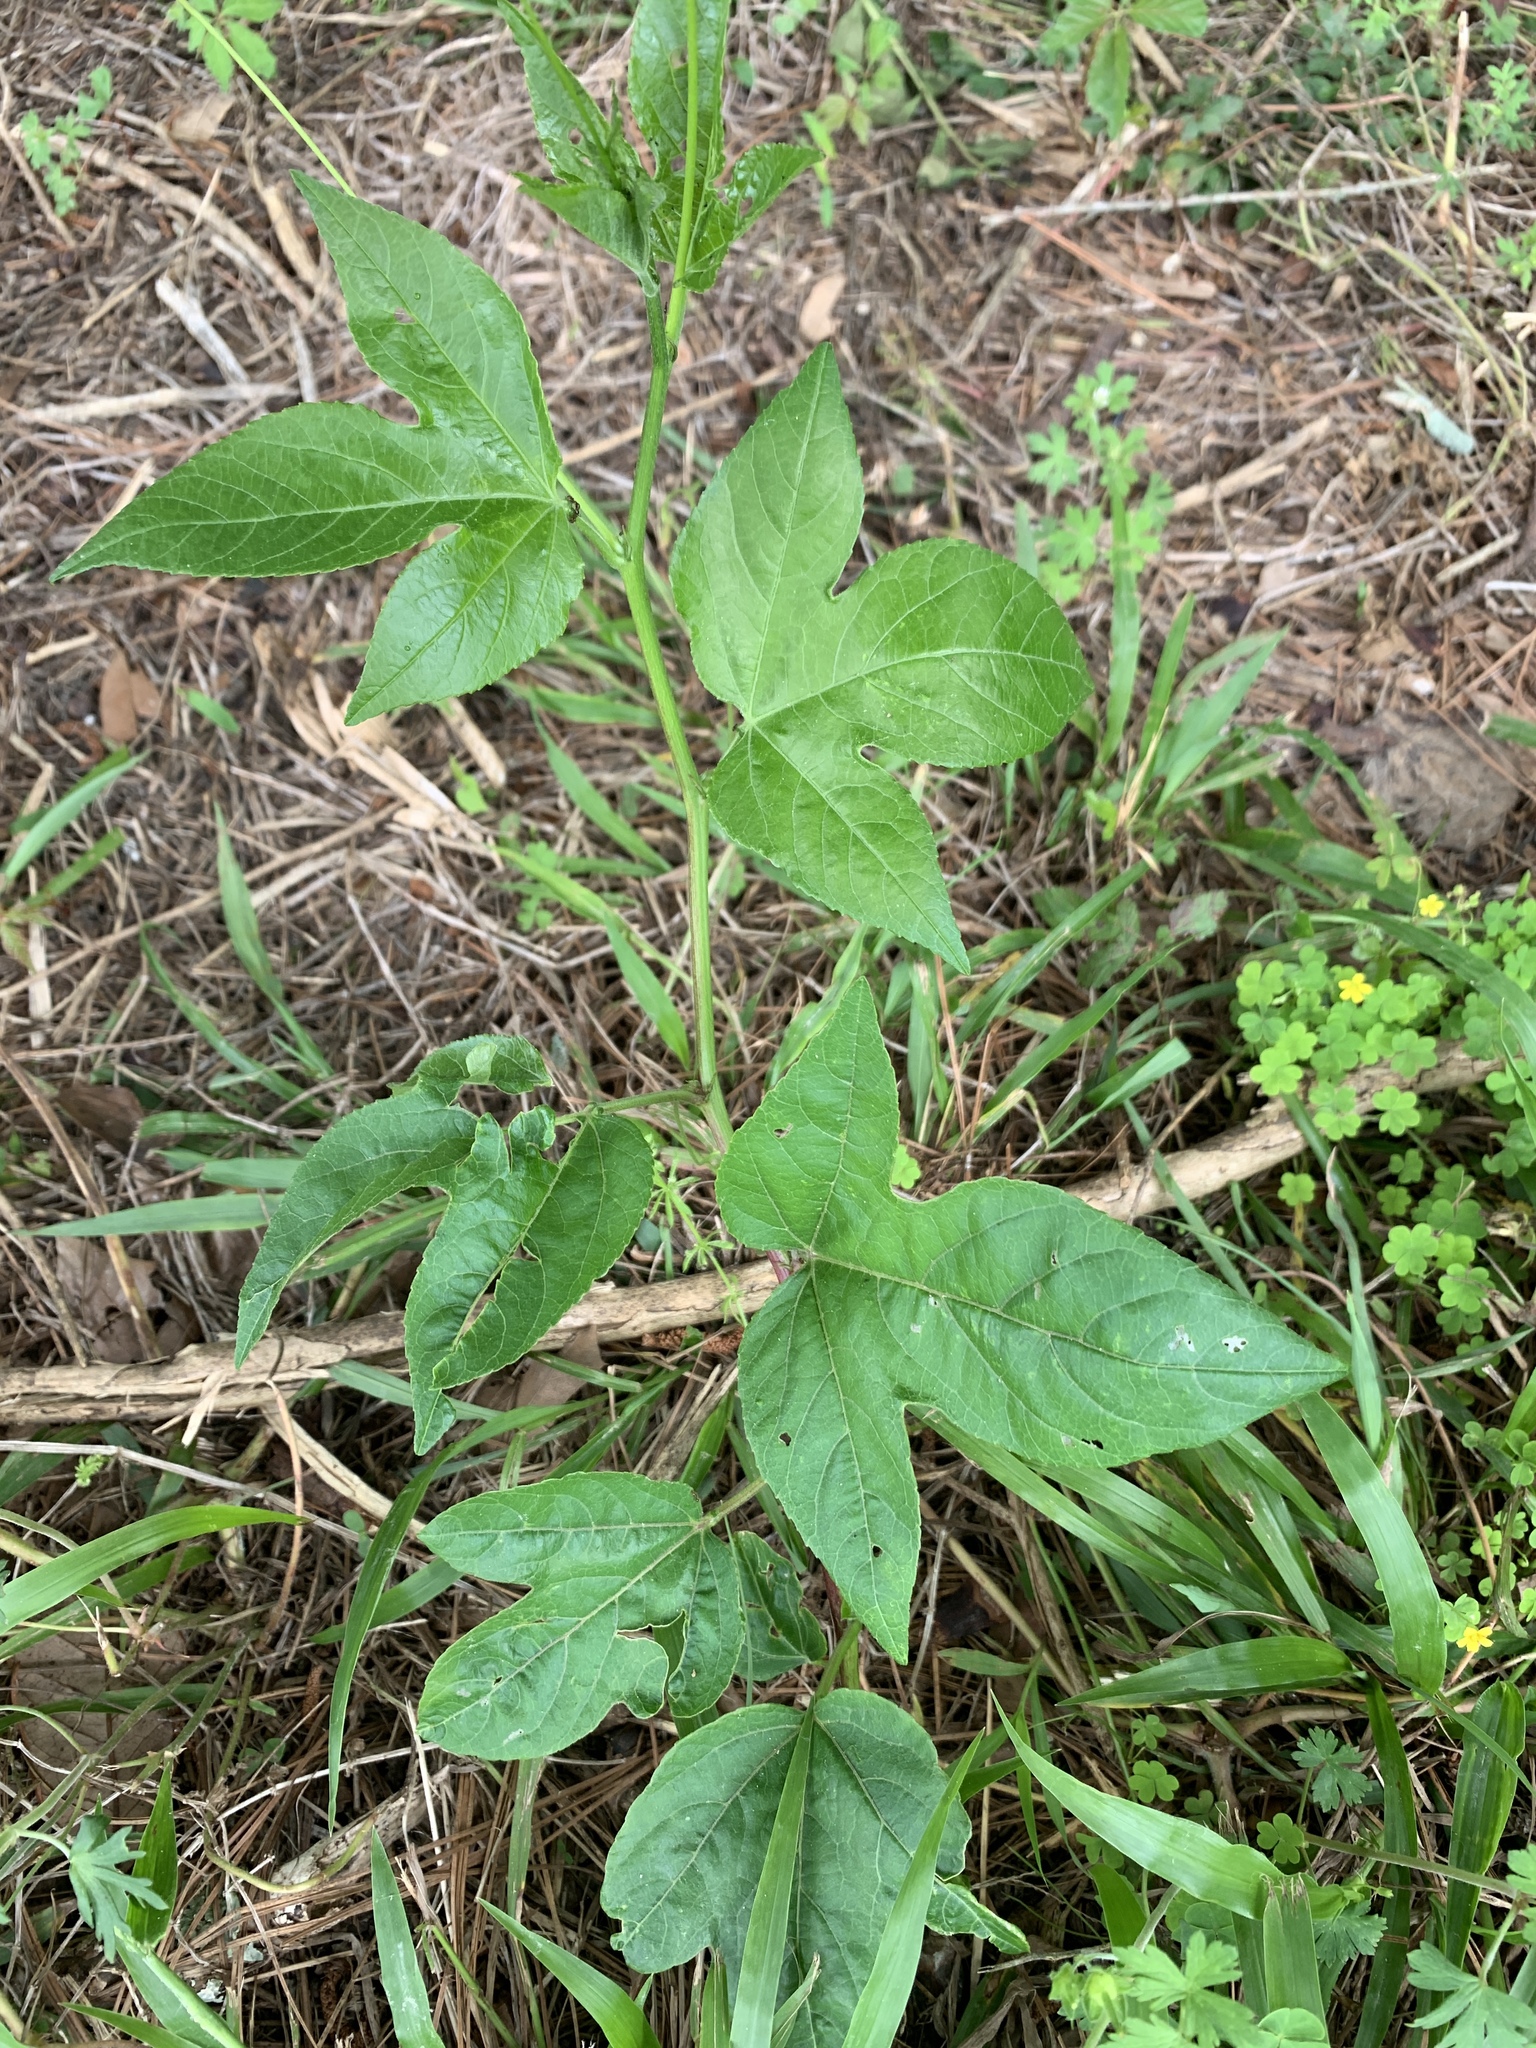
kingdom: Plantae
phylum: Tracheophyta
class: Magnoliopsida
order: Malpighiales
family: Passifloraceae
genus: Passiflora
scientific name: Passiflora incarnata
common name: Apricot-vine
